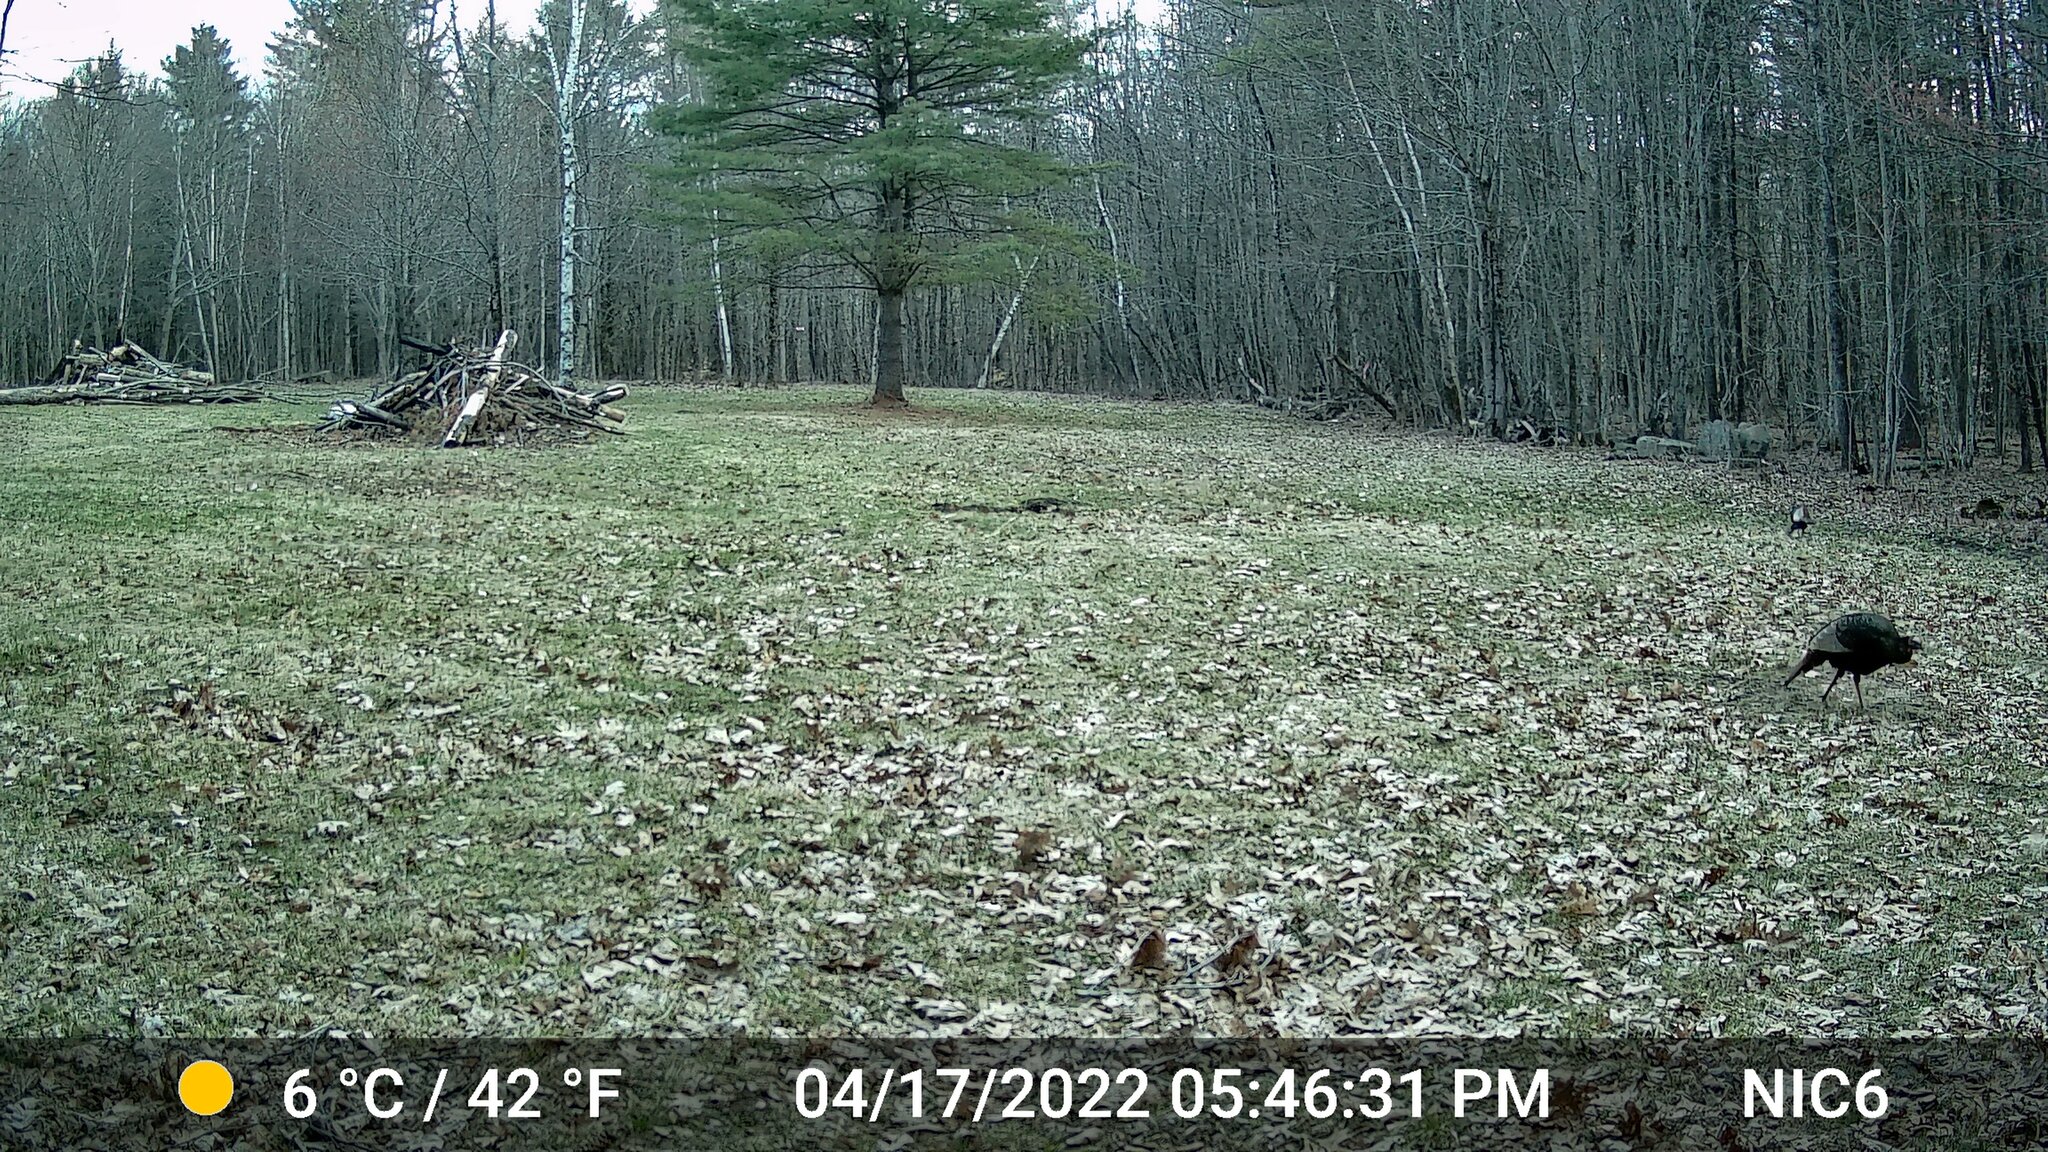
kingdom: Animalia
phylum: Chordata
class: Aves
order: Galliformes
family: Phasianidae
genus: Meleagris
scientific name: Meleagris gallopavo
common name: Wild turkey
